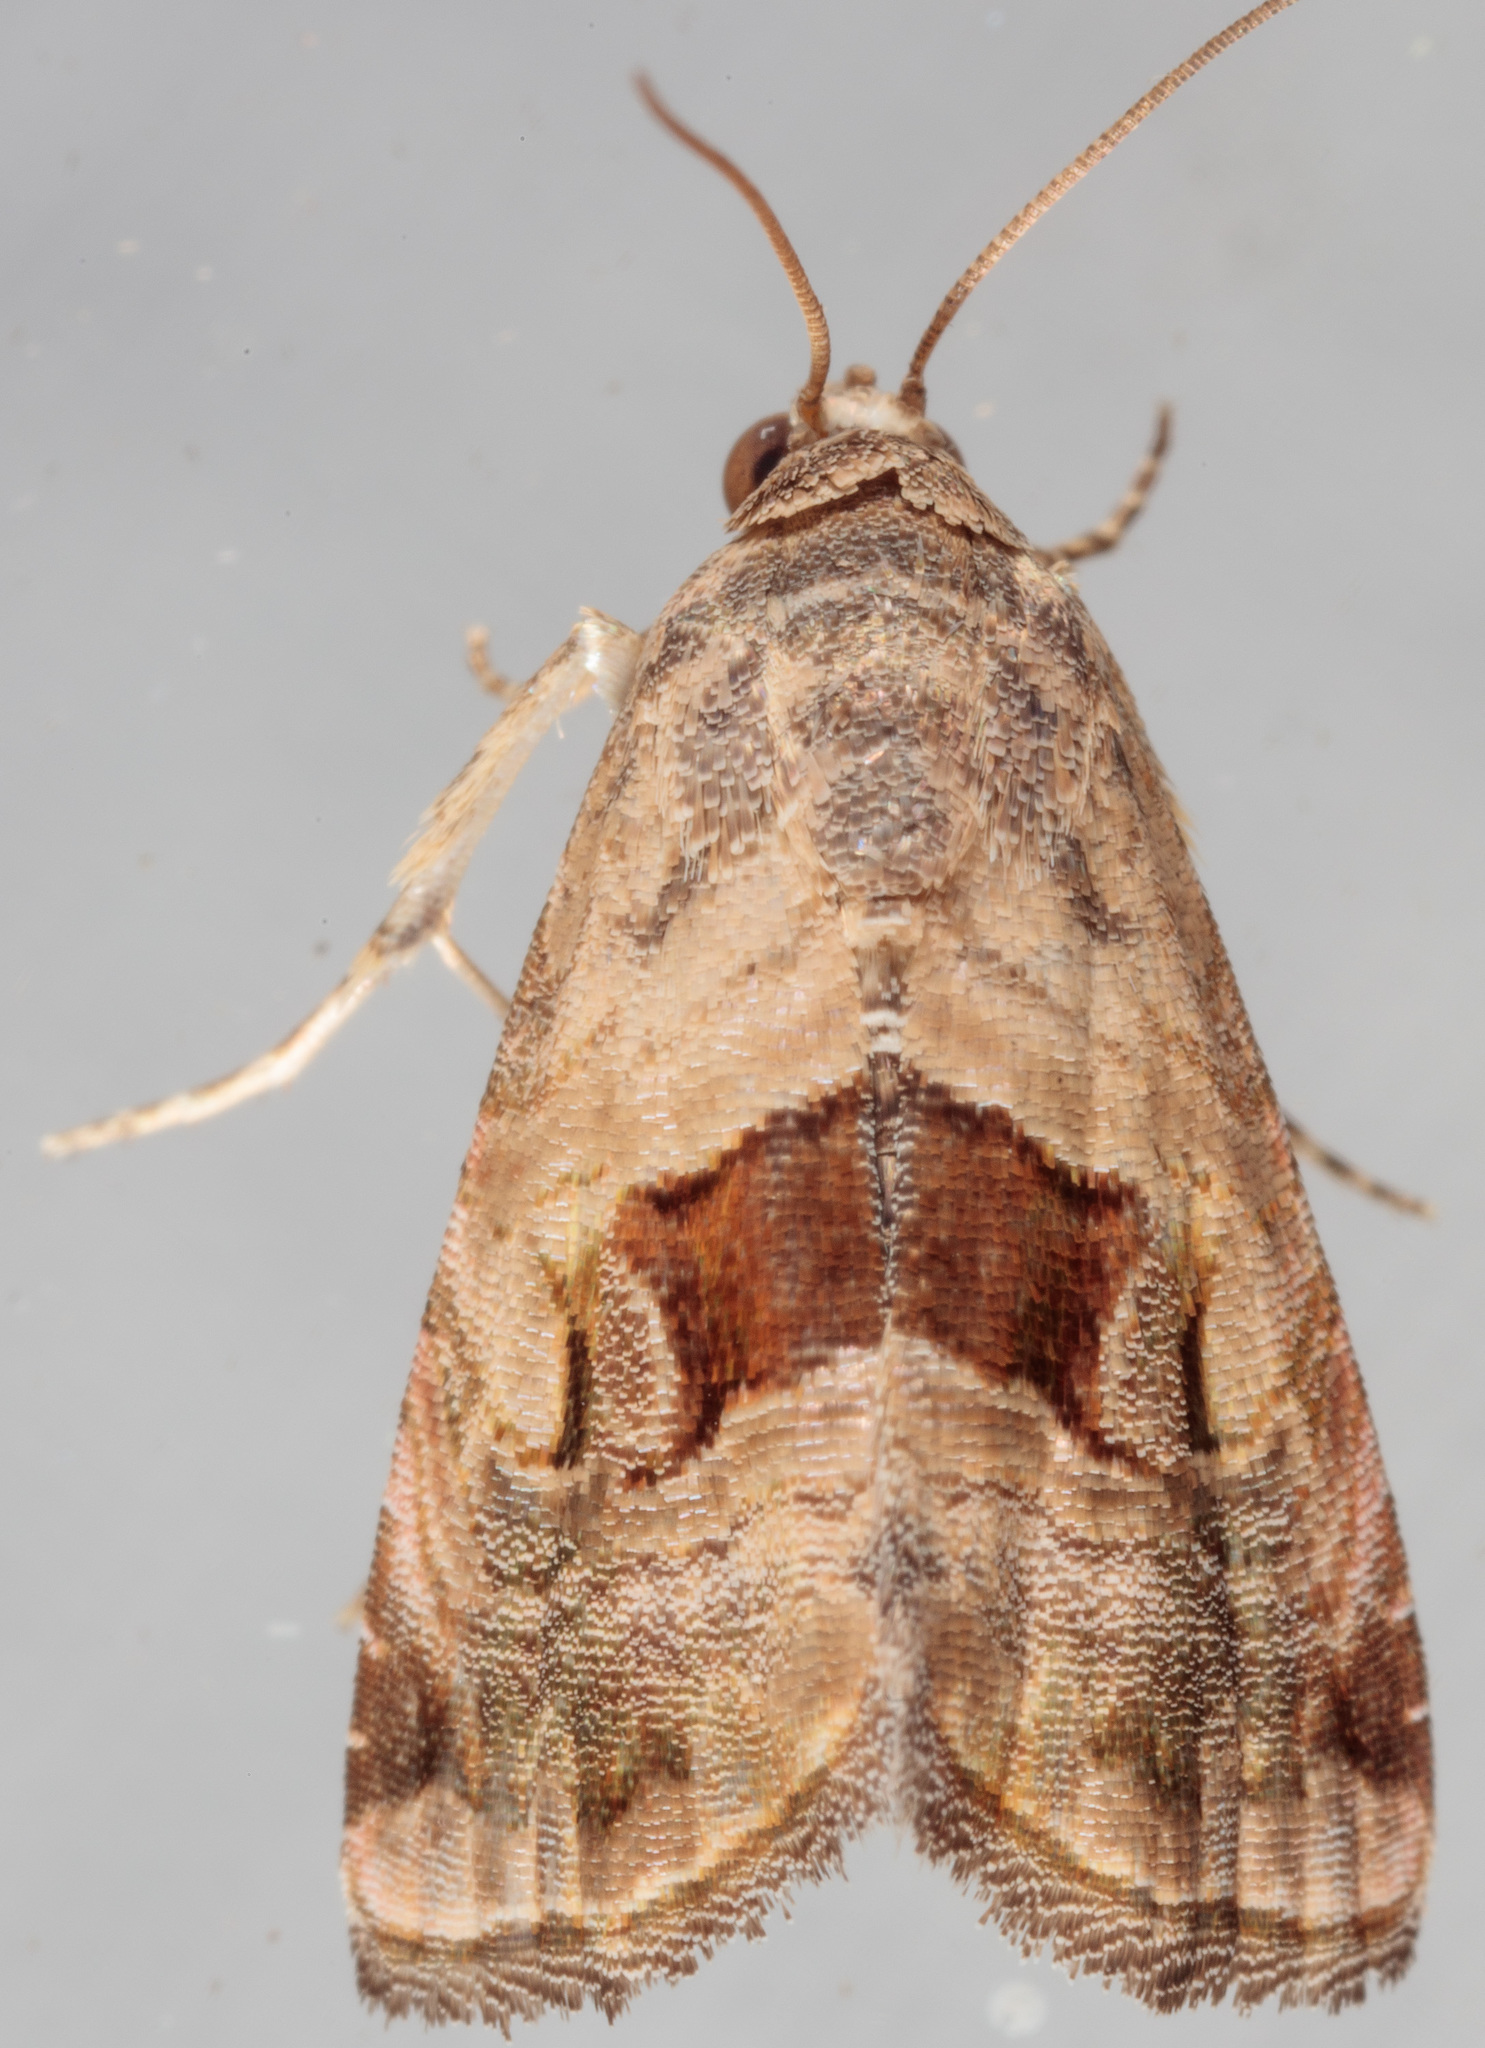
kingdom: Animalia
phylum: Arthropoda
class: Insecta
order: Lepidoptera
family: Noctuidae
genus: Tripudia
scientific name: Tripudia quadrifera
